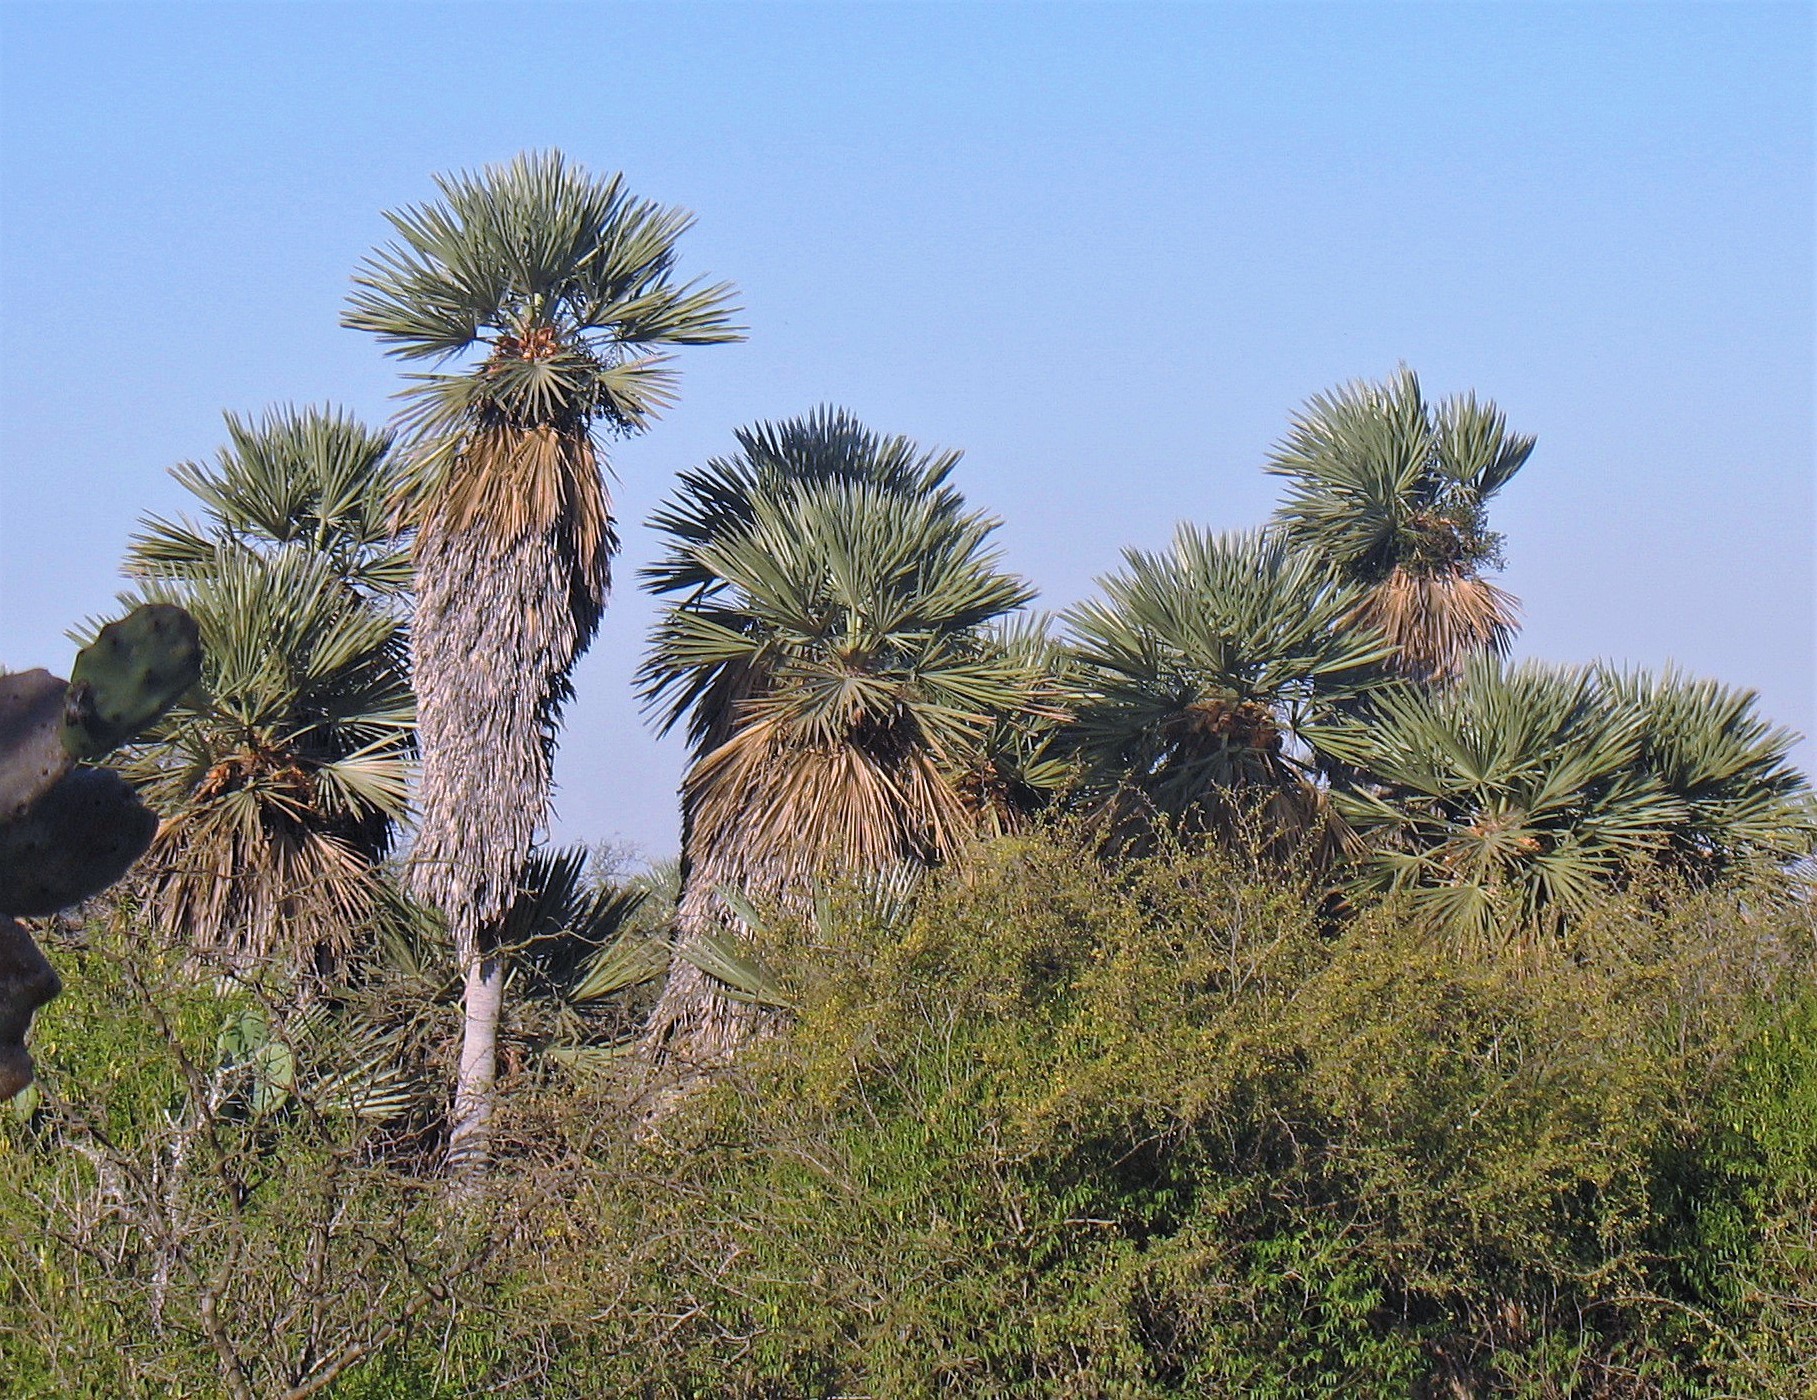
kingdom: Plantae
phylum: Tracheophyta
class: Liliopsida
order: Arecales
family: Arecaceae
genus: Trithrinax
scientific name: Trithrinax campestris
